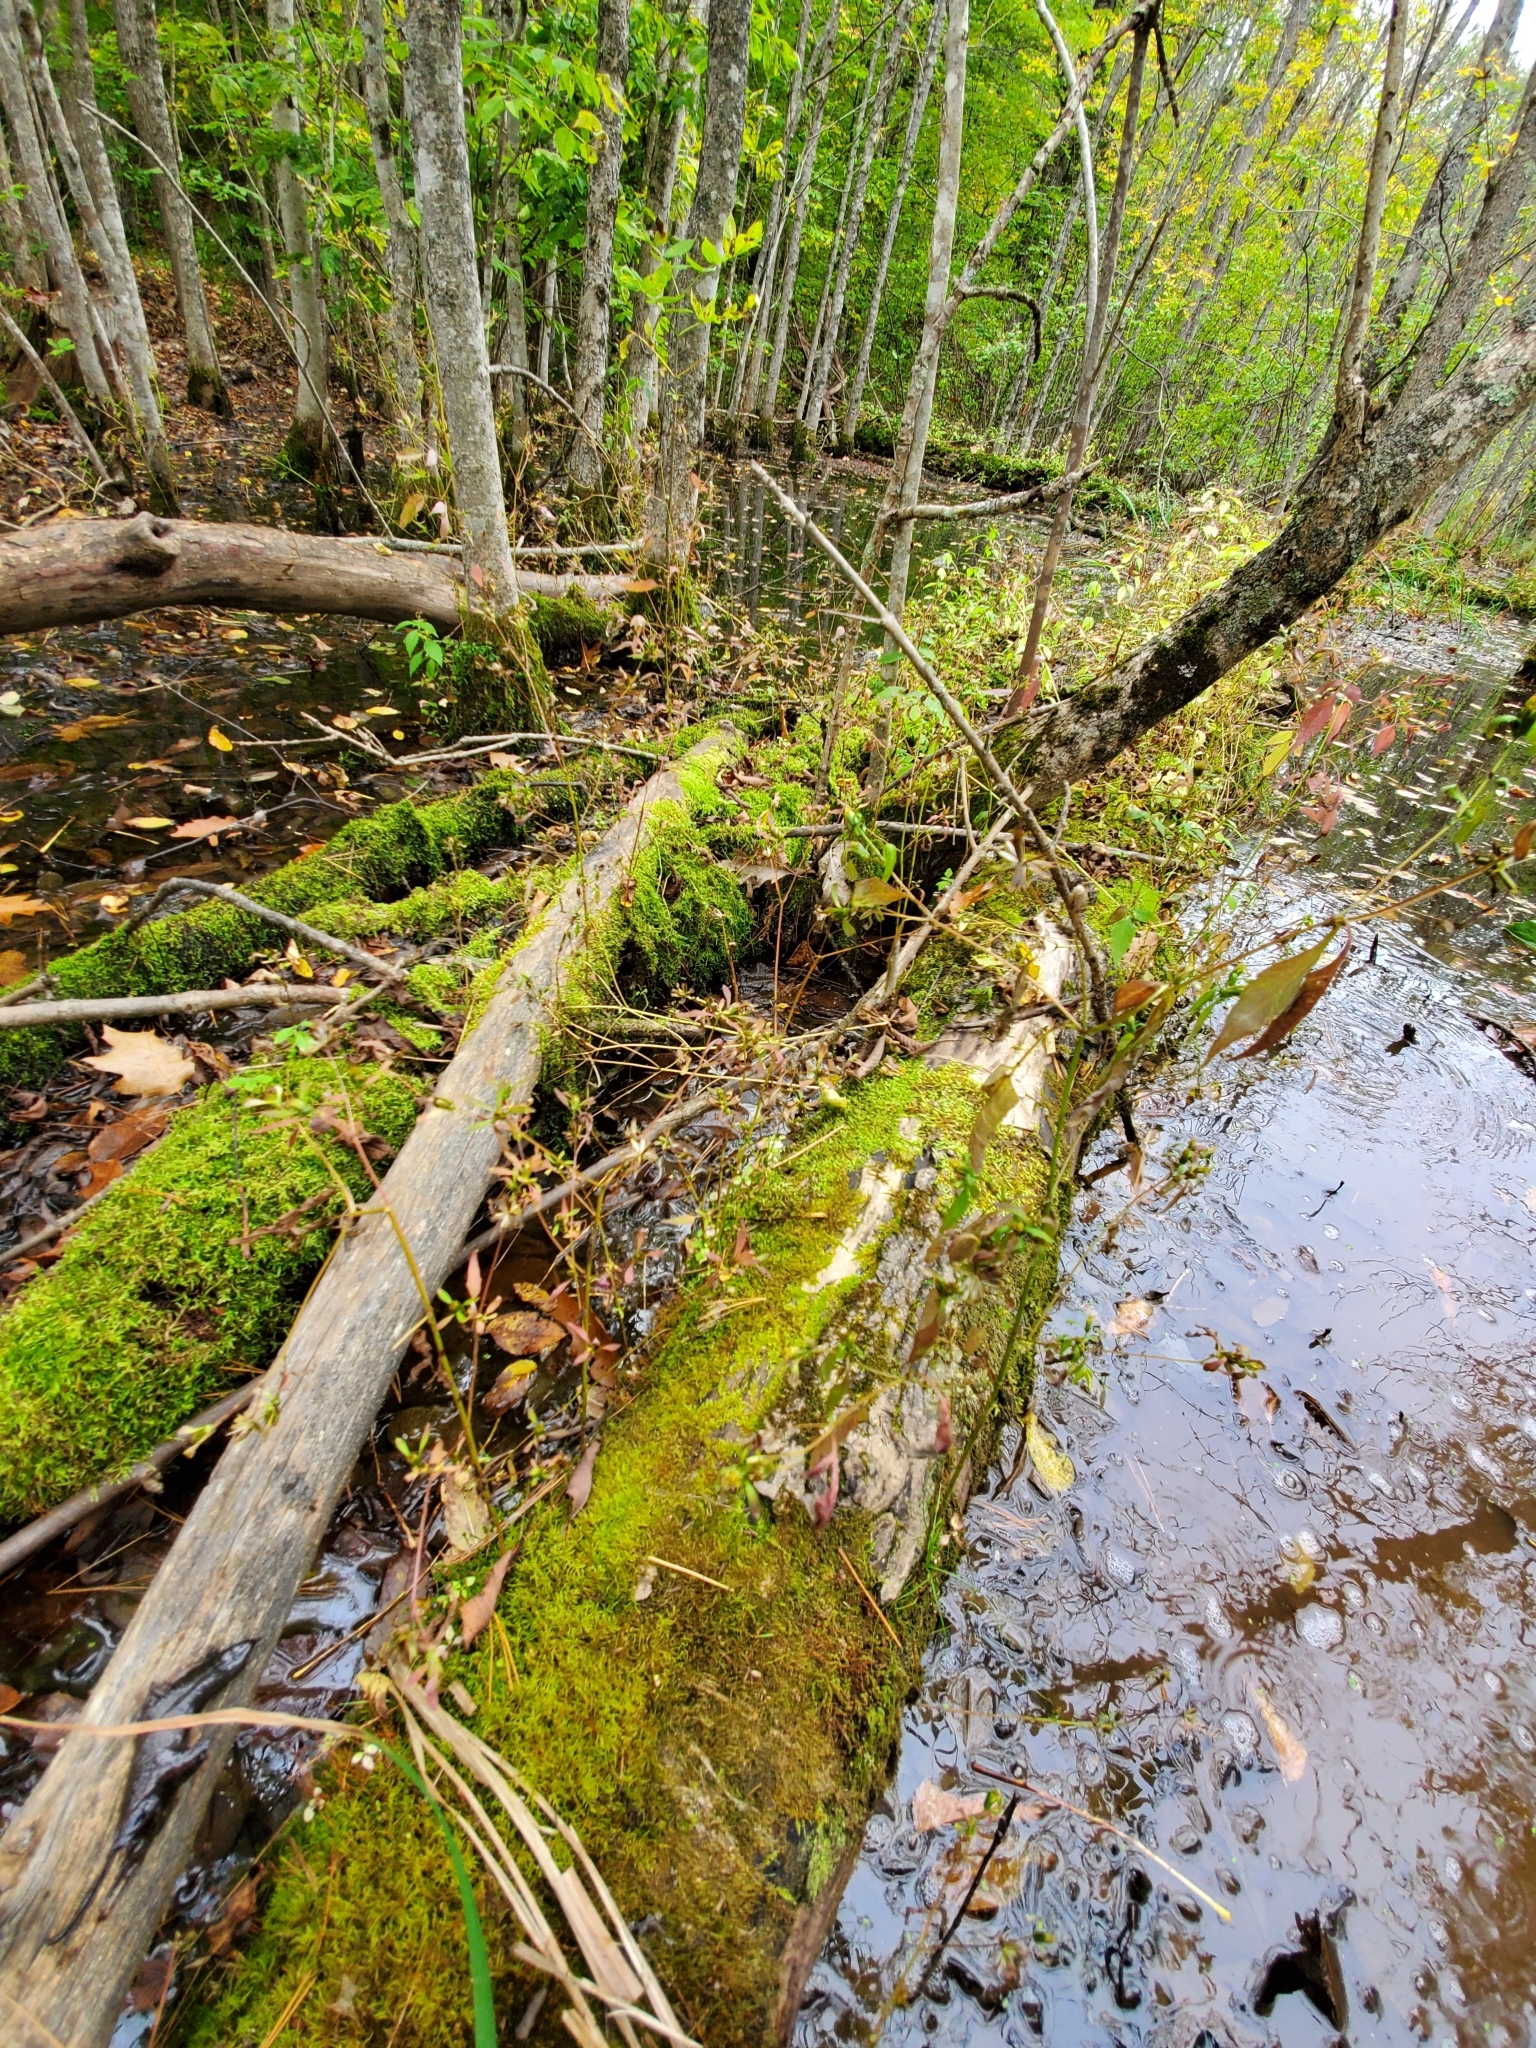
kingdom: Plantae
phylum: Tracheophyta
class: Magnoliopsida
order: Asterales
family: Asteraceae
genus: Bidens
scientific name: Bidens discoidea
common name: Discoide beggarticks
